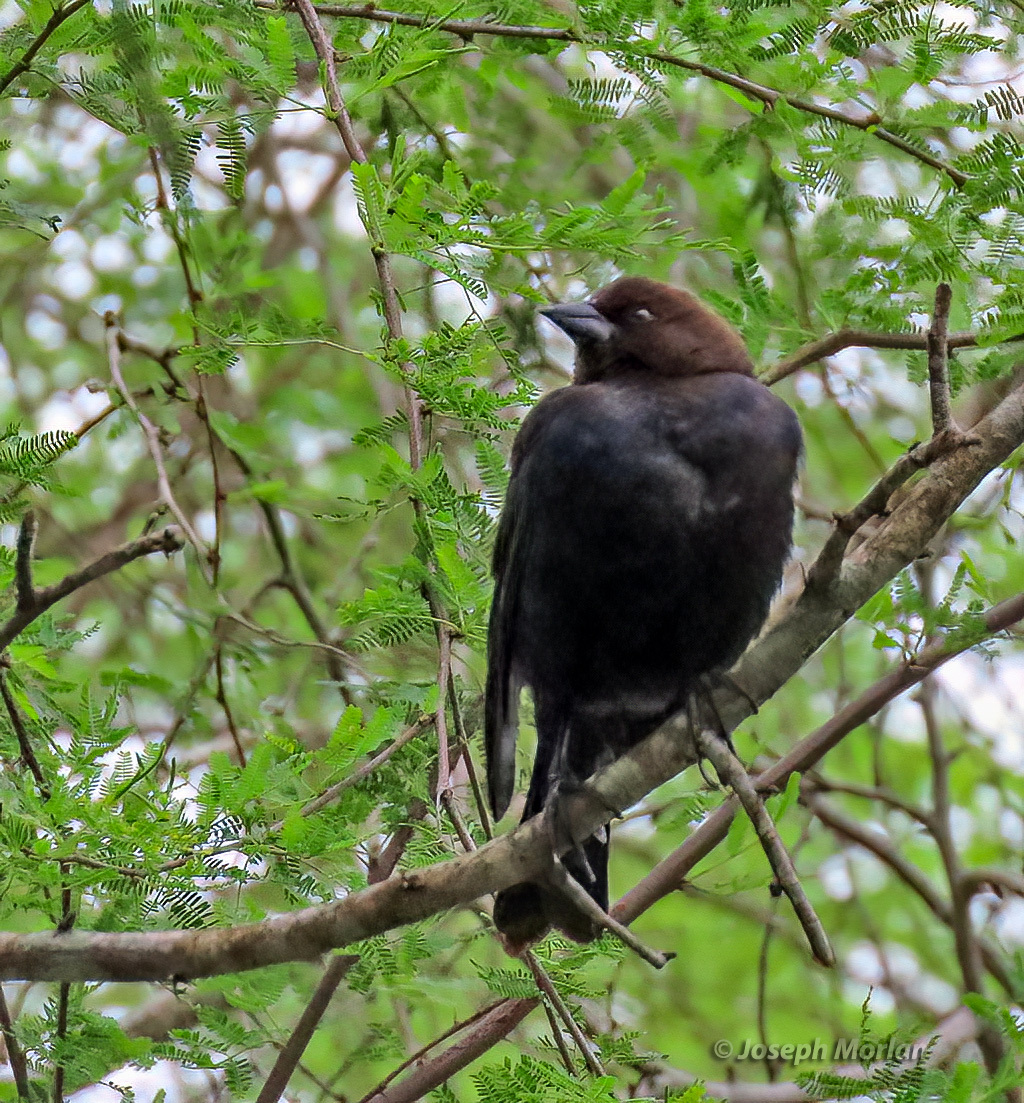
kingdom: Animalia
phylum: Chordata
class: Aves
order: Passeriformes
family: Icteridae
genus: Molothrus
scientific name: Molothrus ater
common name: Brown-headed cowbird
